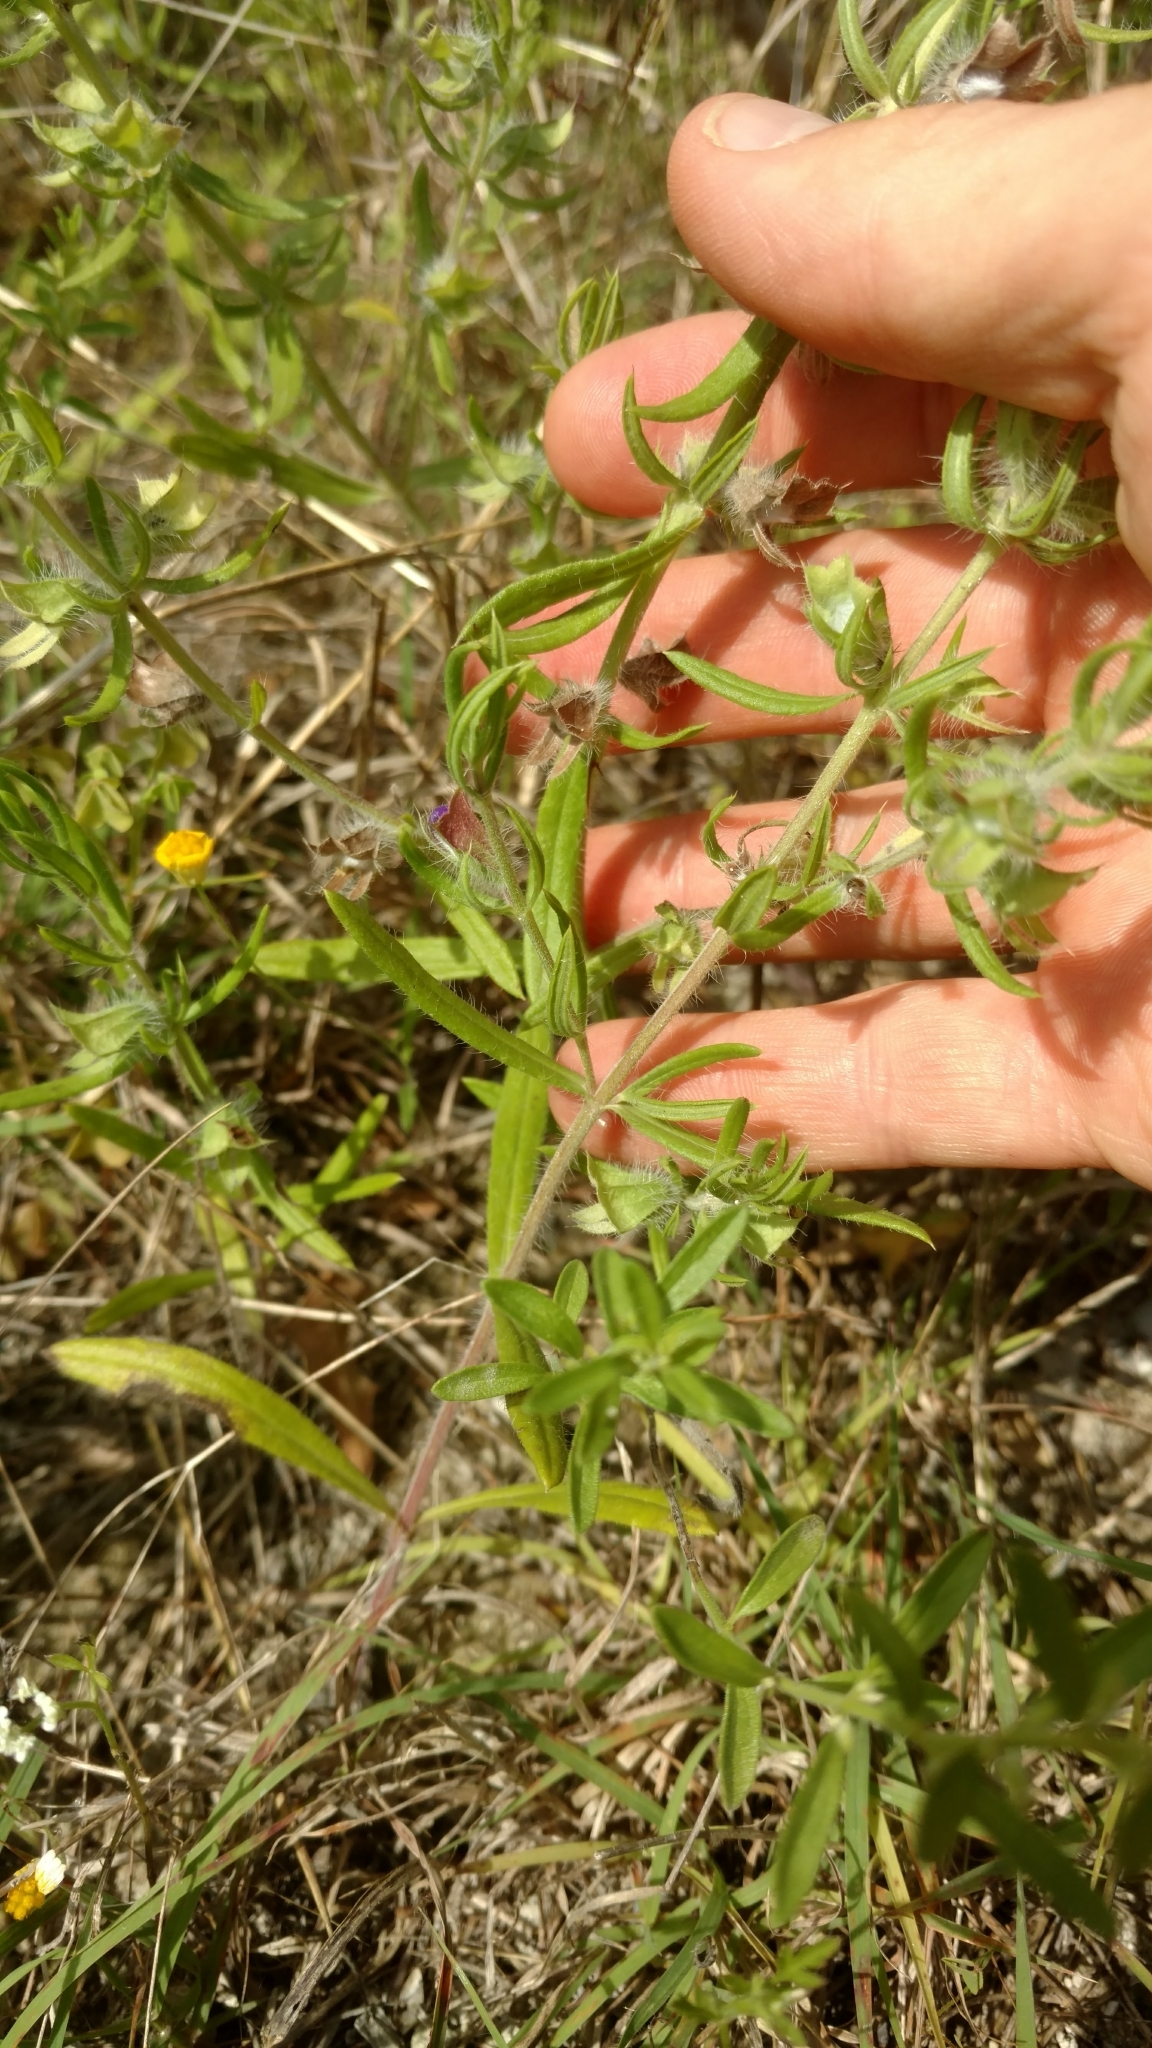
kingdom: Plantae
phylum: Tracheophyta
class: Magnoliopsida
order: Lamiales
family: Lamiaceae
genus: Salvia
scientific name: Salvia texana
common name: Texas sage
